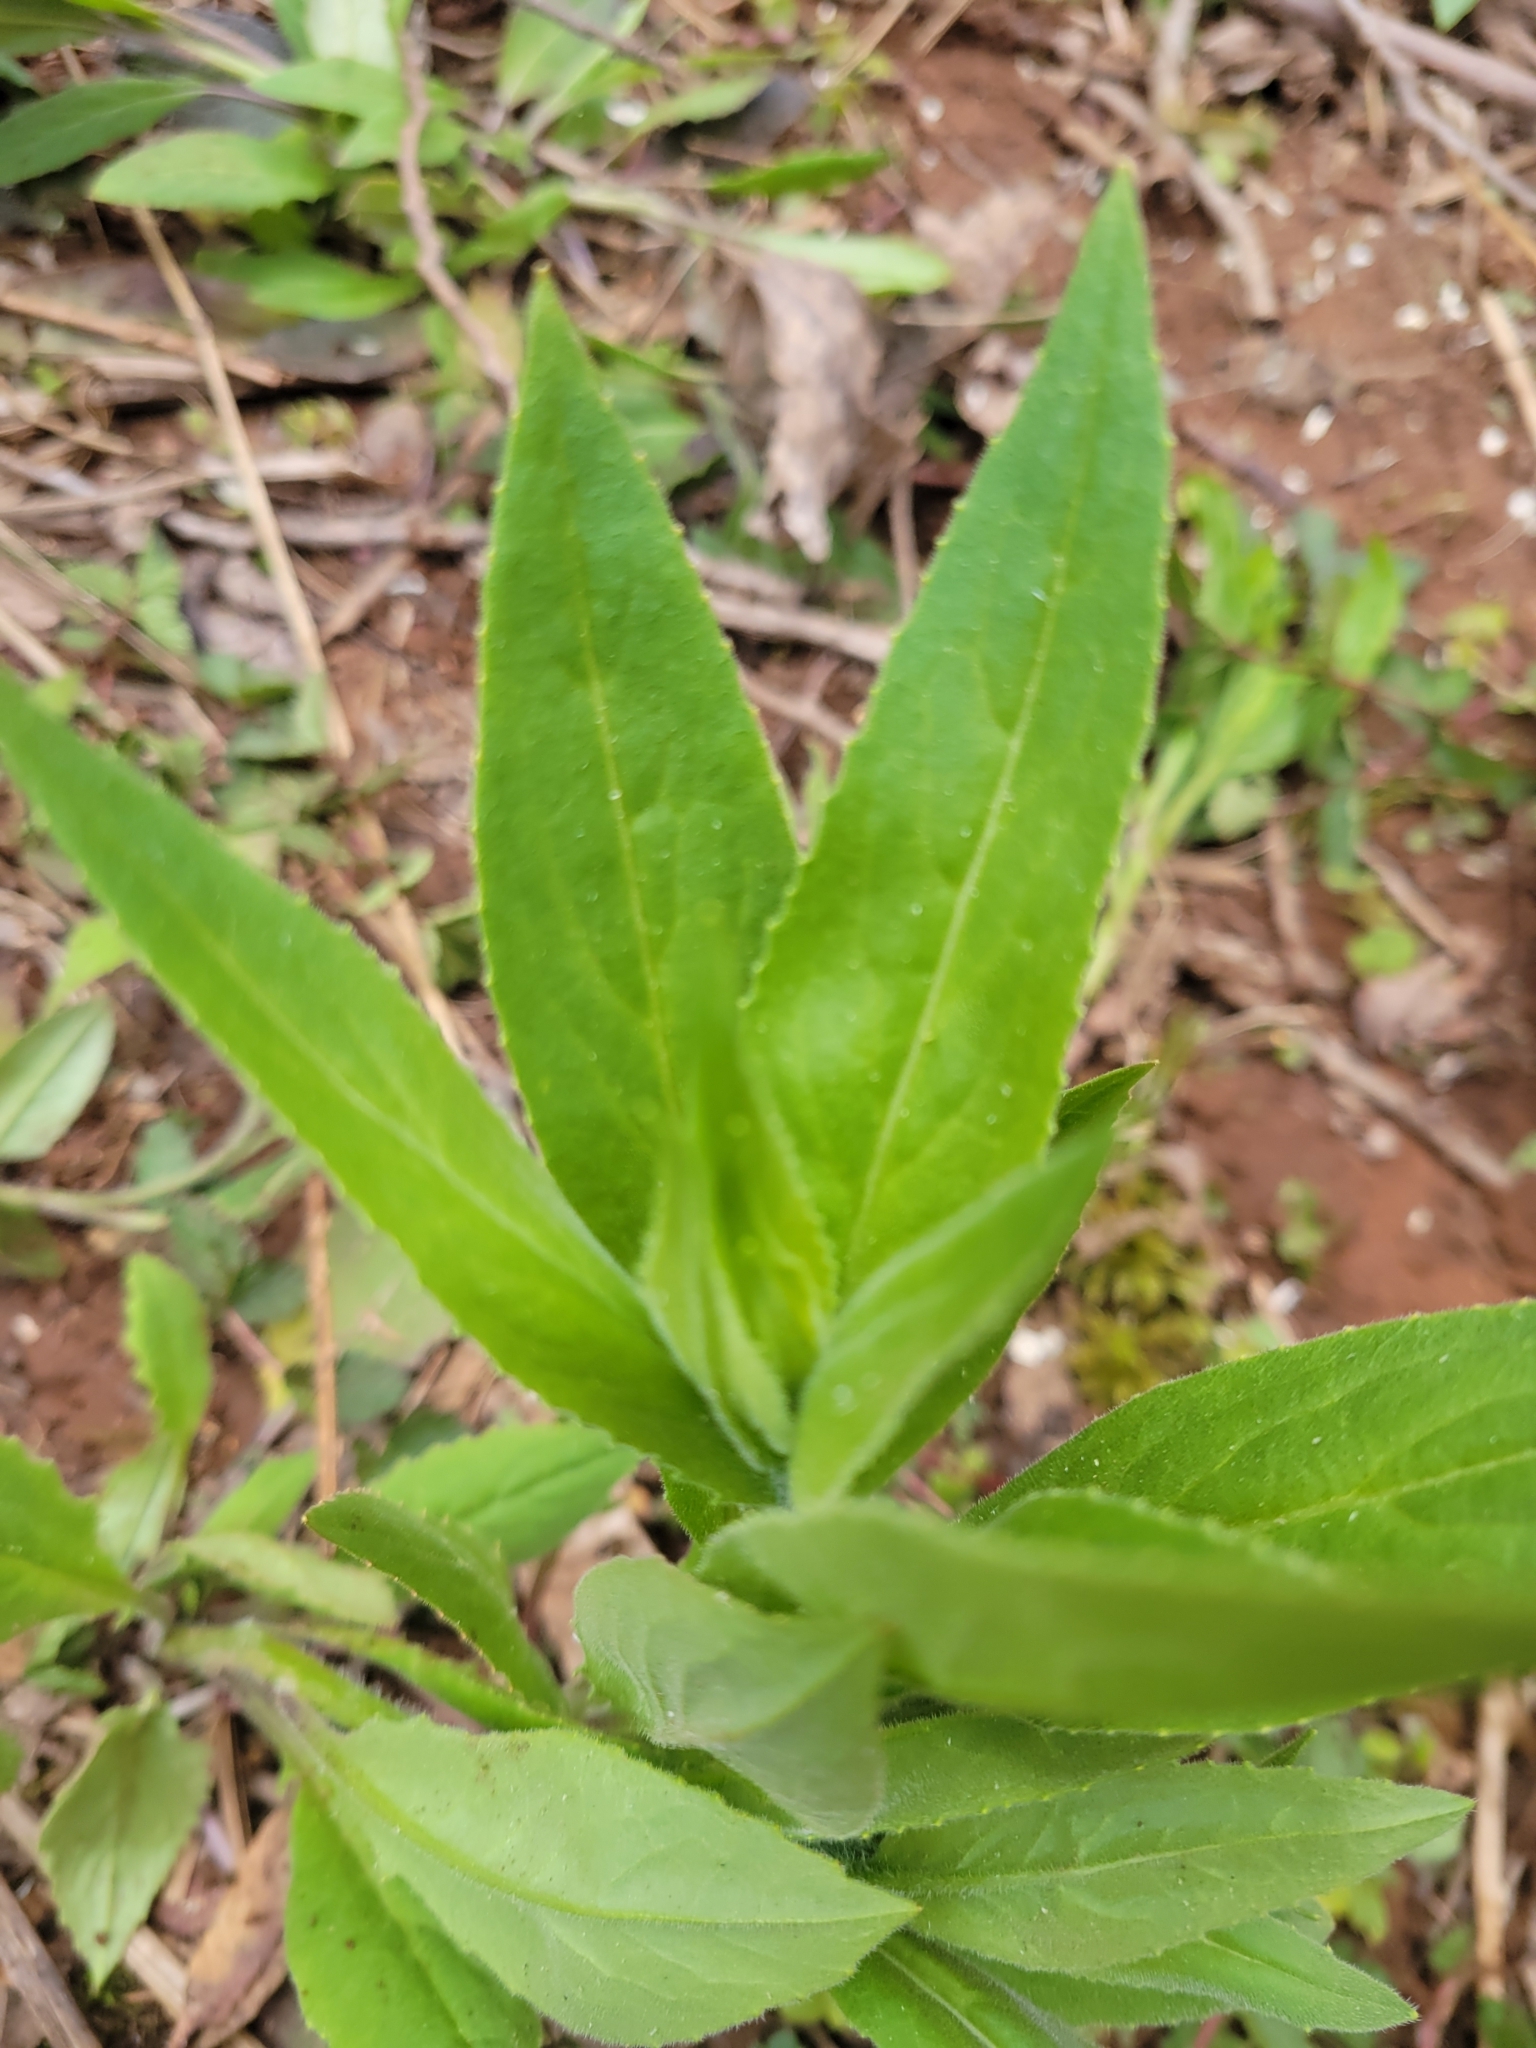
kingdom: Plantae
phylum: Tracheophyta
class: Magnoliopsida
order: Brassicales
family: Brassicaceae
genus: Hesperis
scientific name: Hesperis matronalis
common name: Dame's-violet
